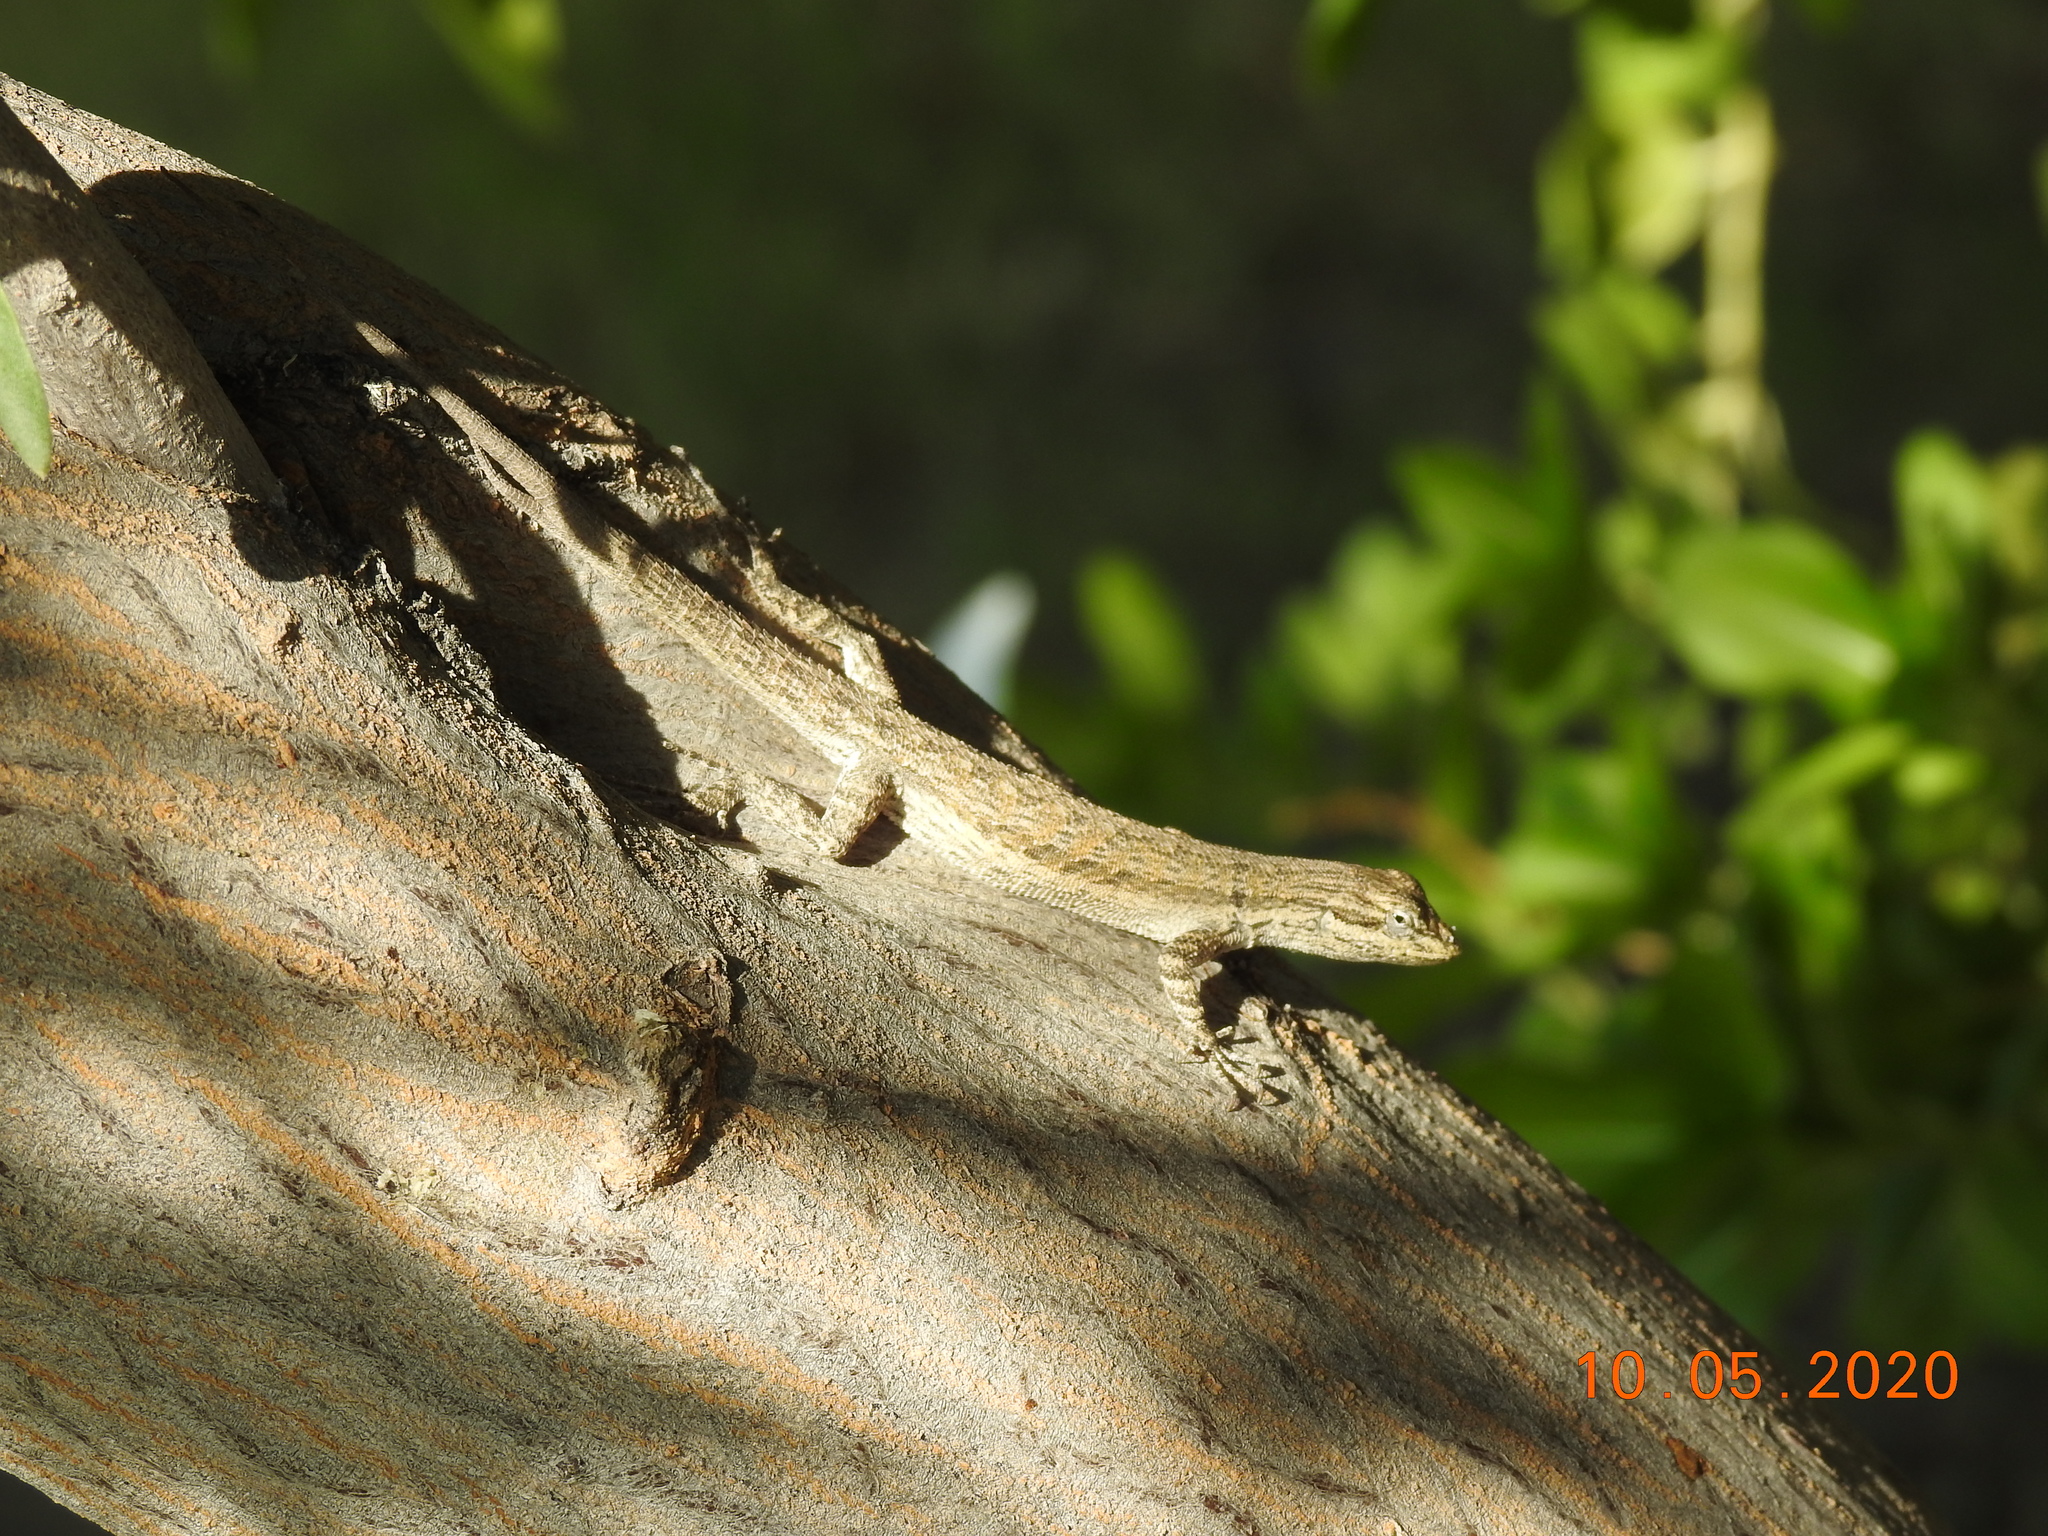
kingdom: Animalia
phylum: Chordata
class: Squamata
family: Phrynosomatidae
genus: Urosaurus
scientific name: Urosaurus graciosus
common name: Long-tailed brush lizard
